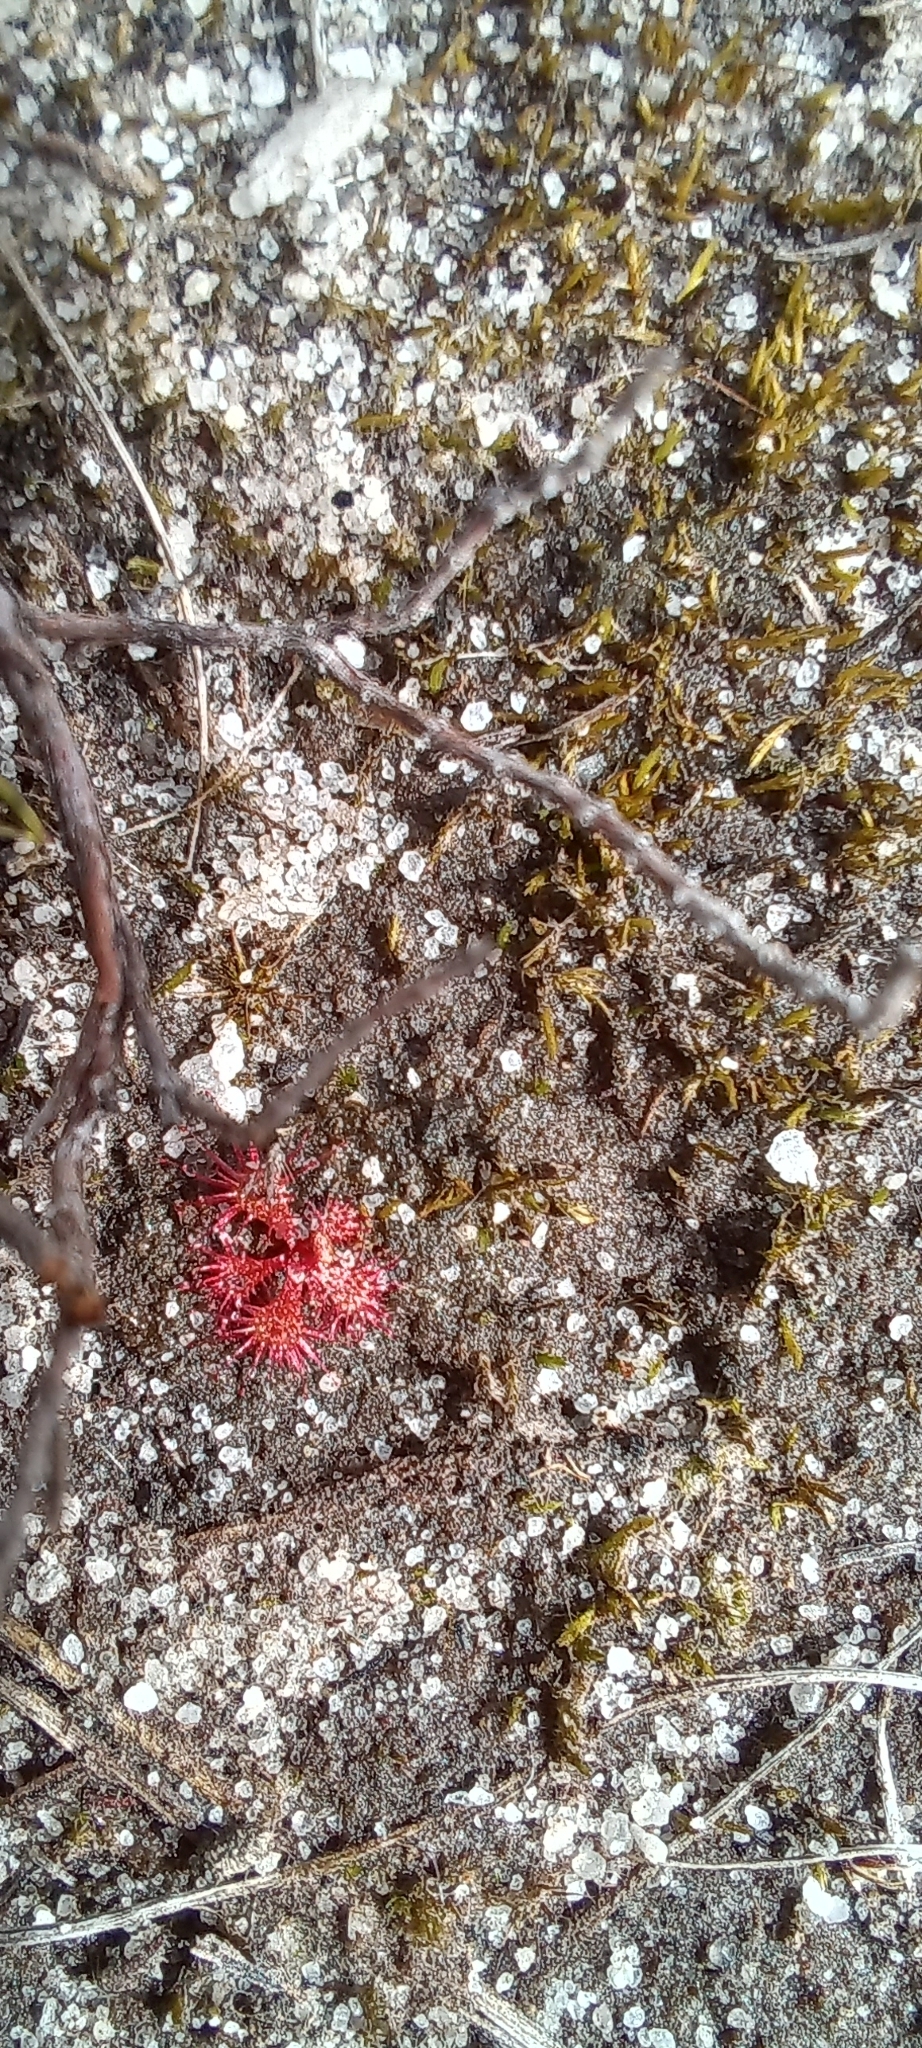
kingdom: Plantae
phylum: Tracheophyta
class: Magnoliopsida
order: Caryophyllales
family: Droseraceae
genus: Drosera
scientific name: Drosera trinervia
